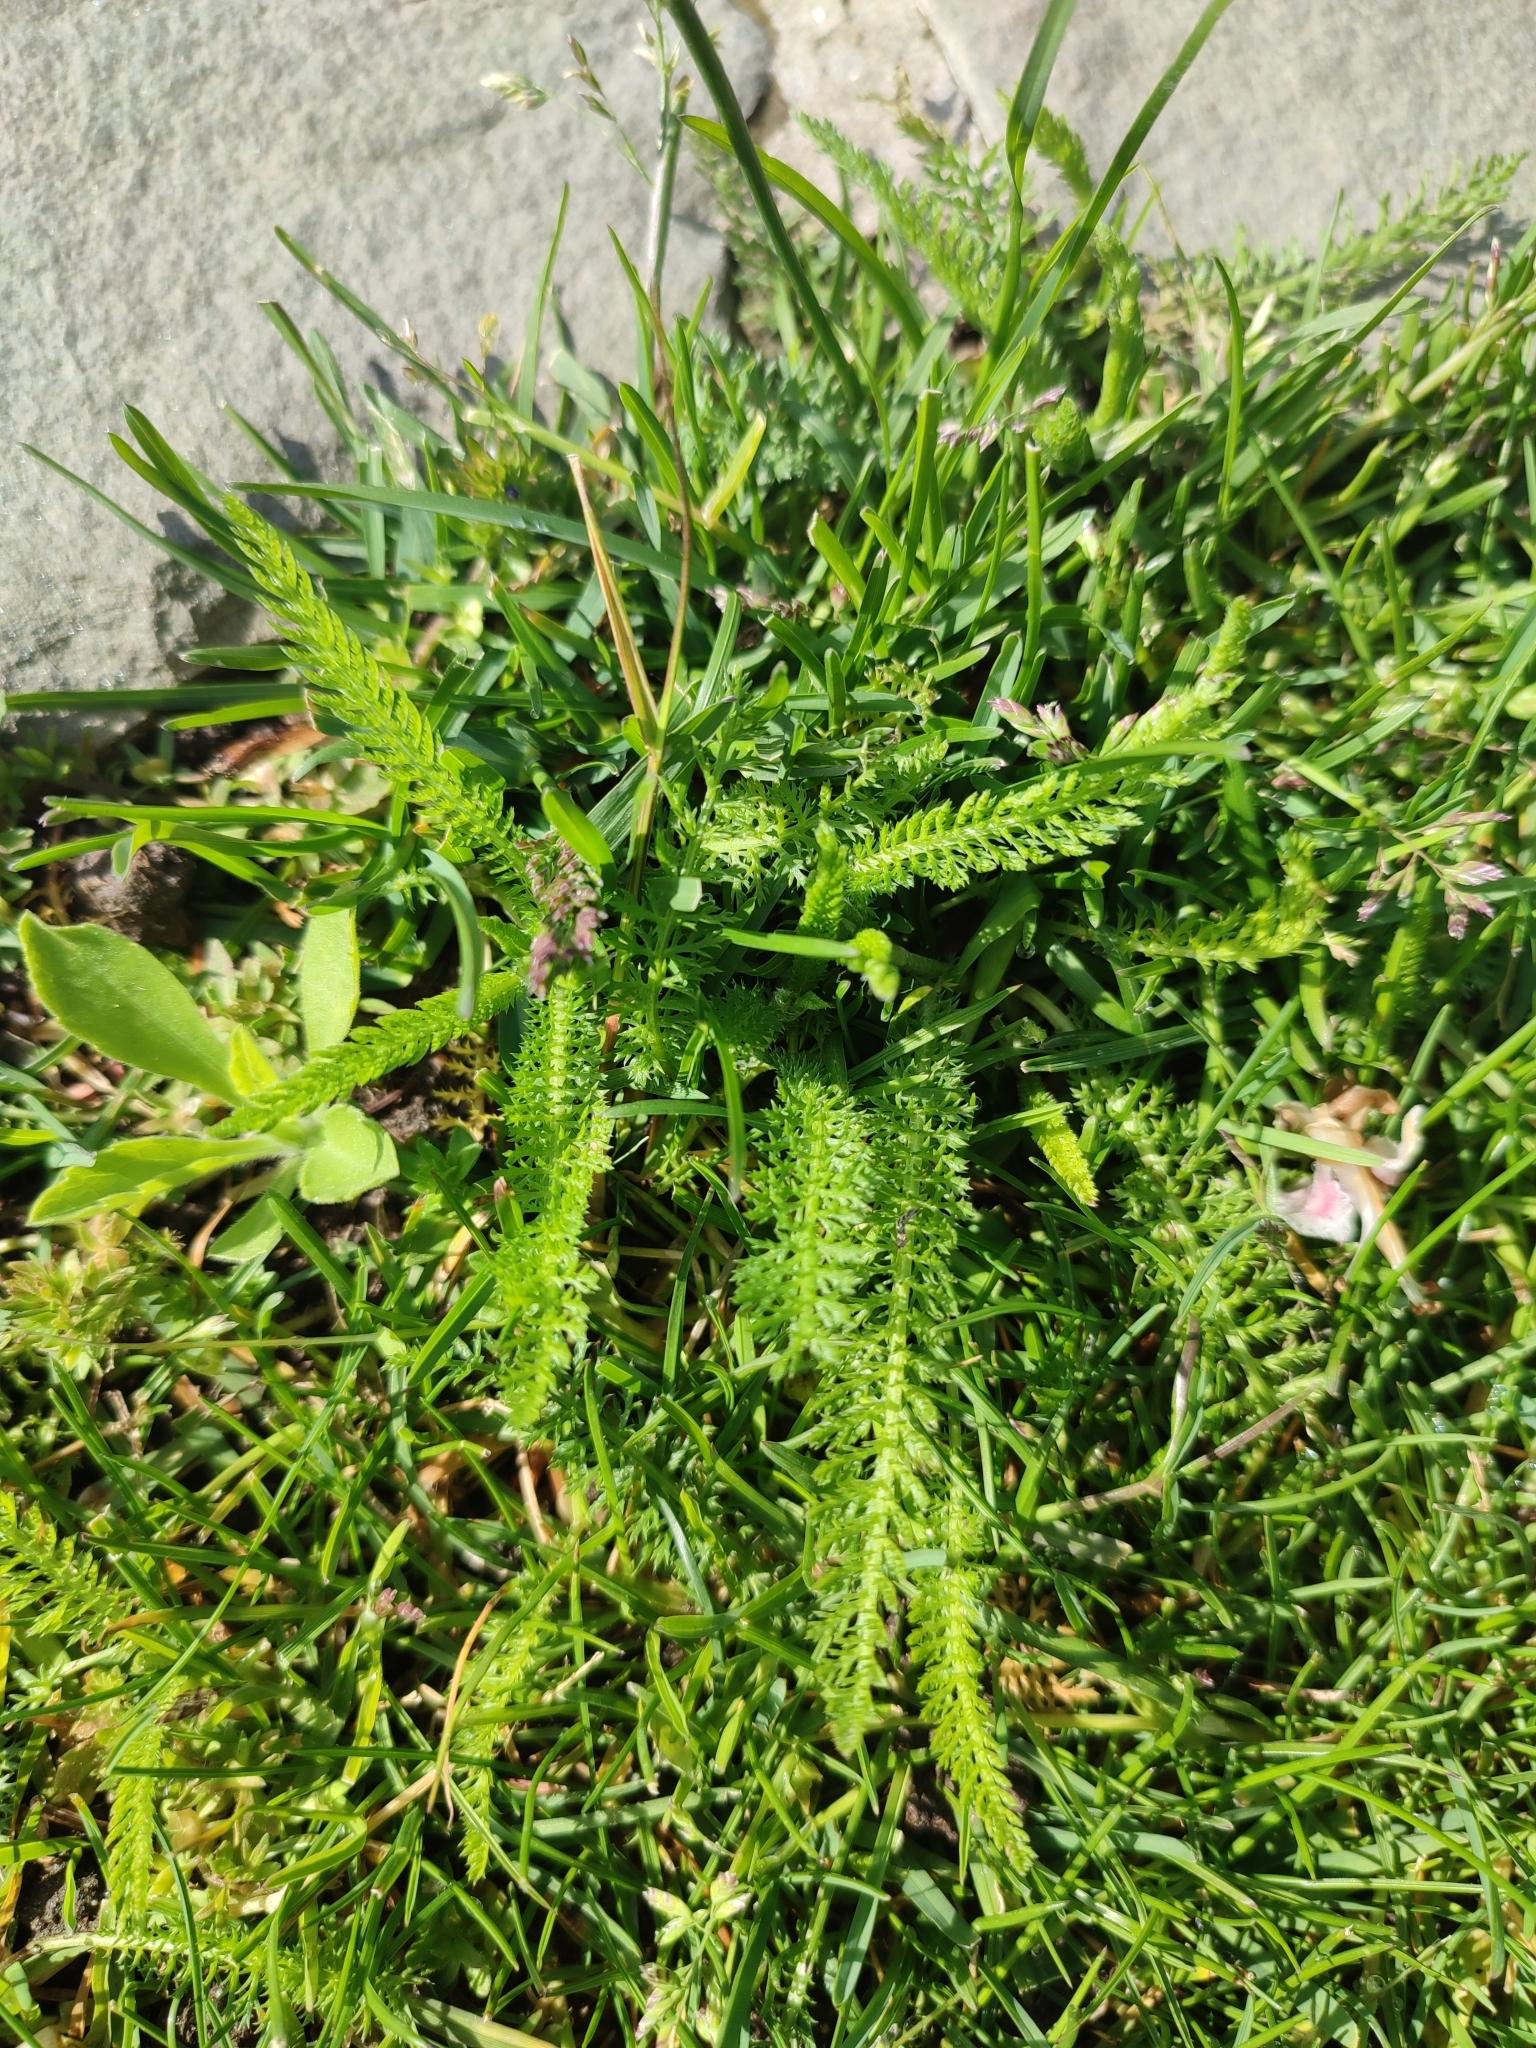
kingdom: Plantae
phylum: Tracheophyta
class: Magnoliopsida
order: Asterales
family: Asteraceae
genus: Achillea
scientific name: Achillea millefolium
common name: Yarrow
